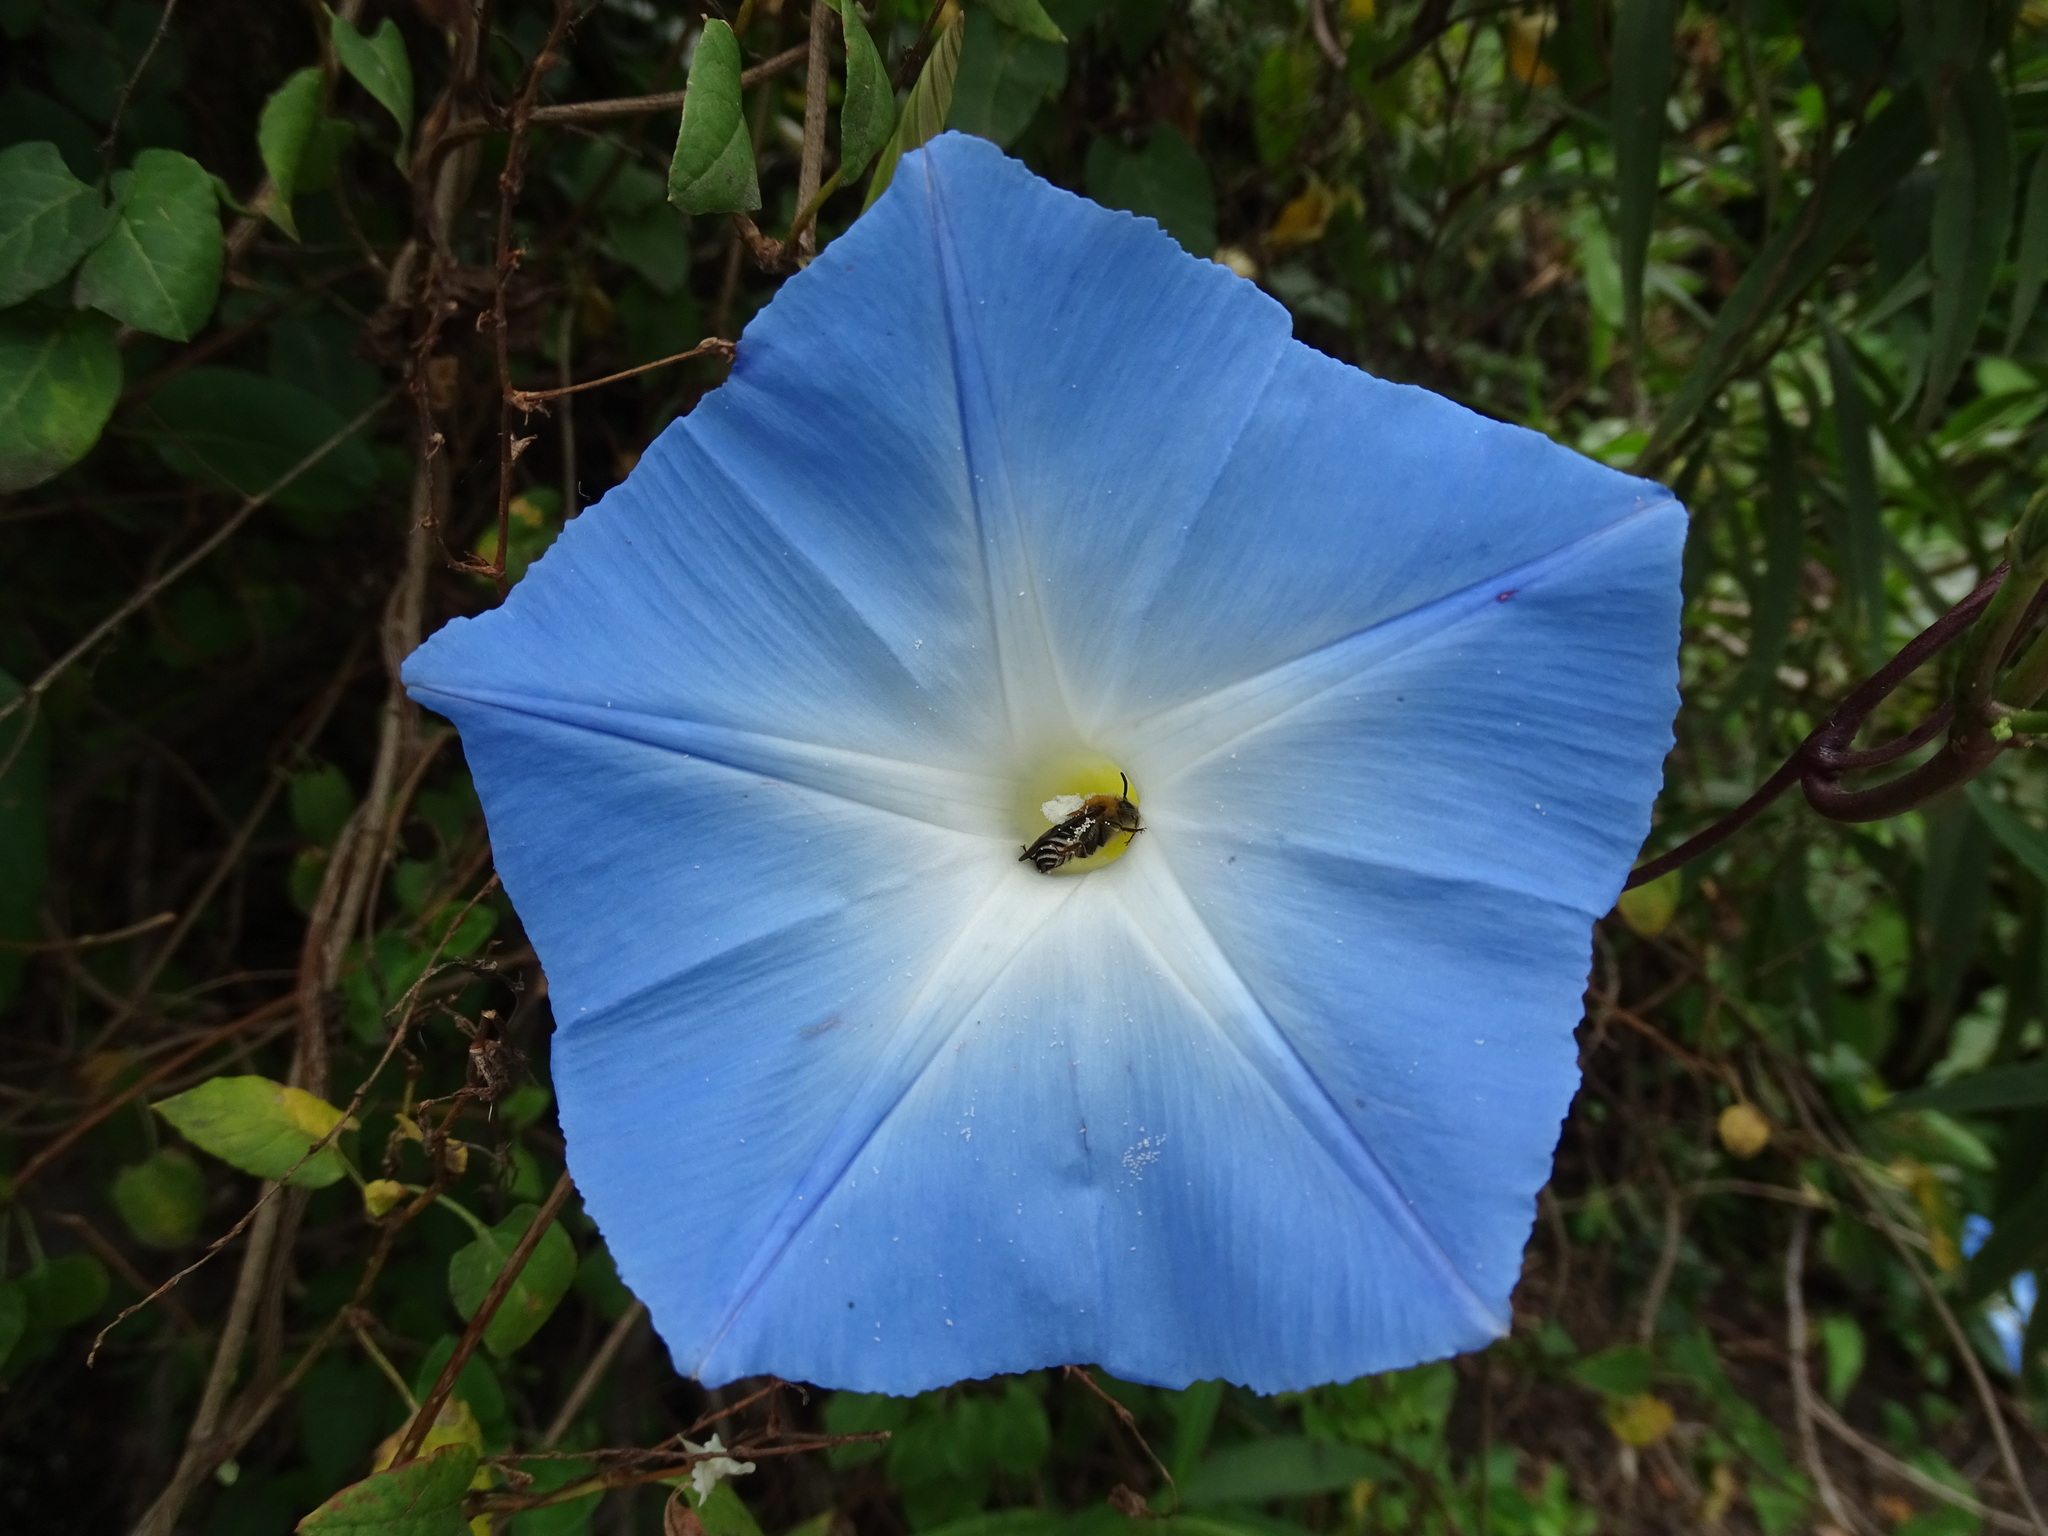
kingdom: Plantae
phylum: Tracheophyta
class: Magnoliopsida
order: Solanales
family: Convolvulaceae
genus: Ipomoea
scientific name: Ipomoea tricolor
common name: Morning-glory
